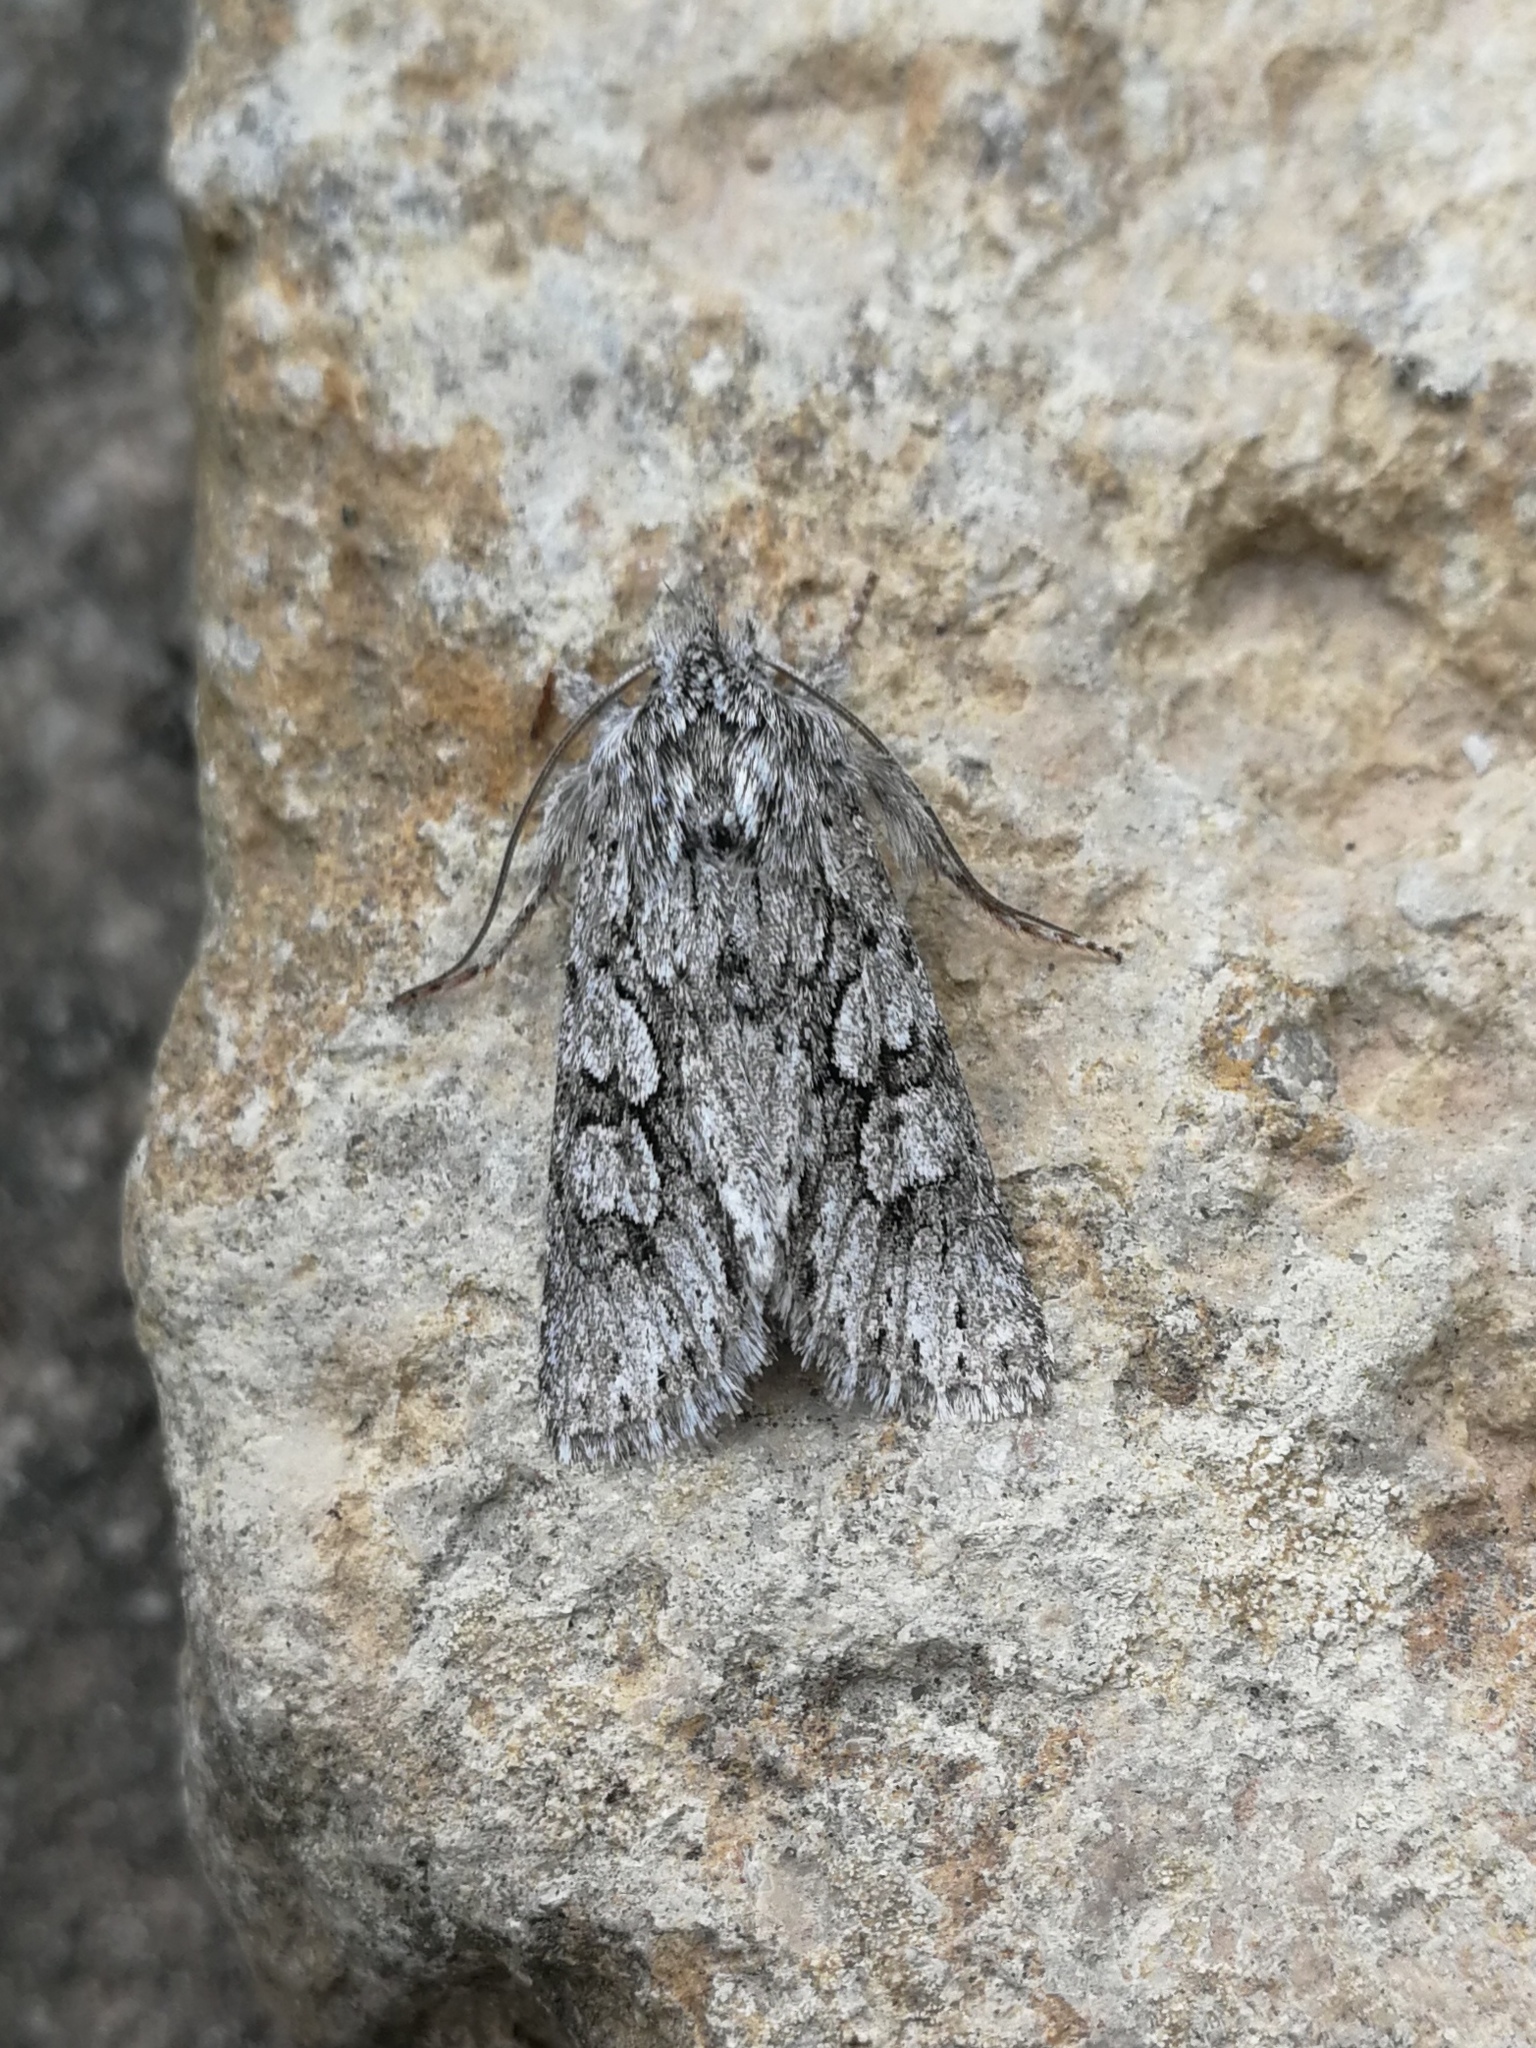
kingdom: Animalia
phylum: Arthropoda
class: Insecta
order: Lepidoptera
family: Noctuidae
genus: Xylocampa
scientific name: Xylocampa areola
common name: Early grey
